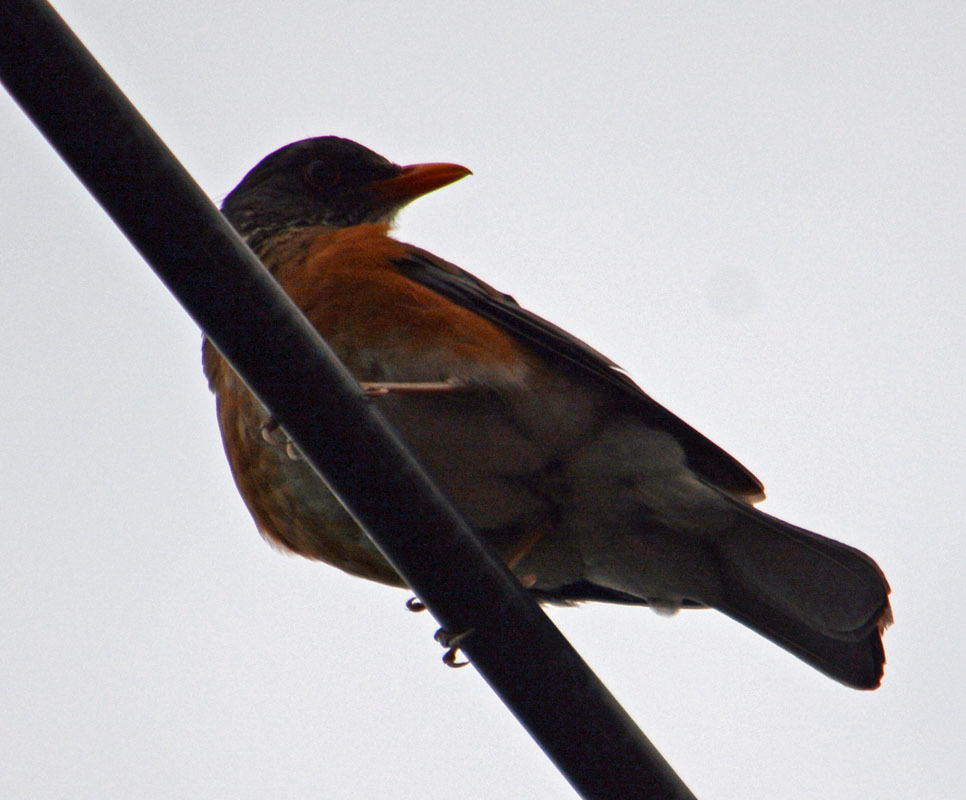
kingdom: Animalia
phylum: Chordata
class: Aves
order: Passeriformes
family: Turdidae
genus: Turdus
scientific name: Turdus rufopalliatus
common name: Rufous-backed robin
